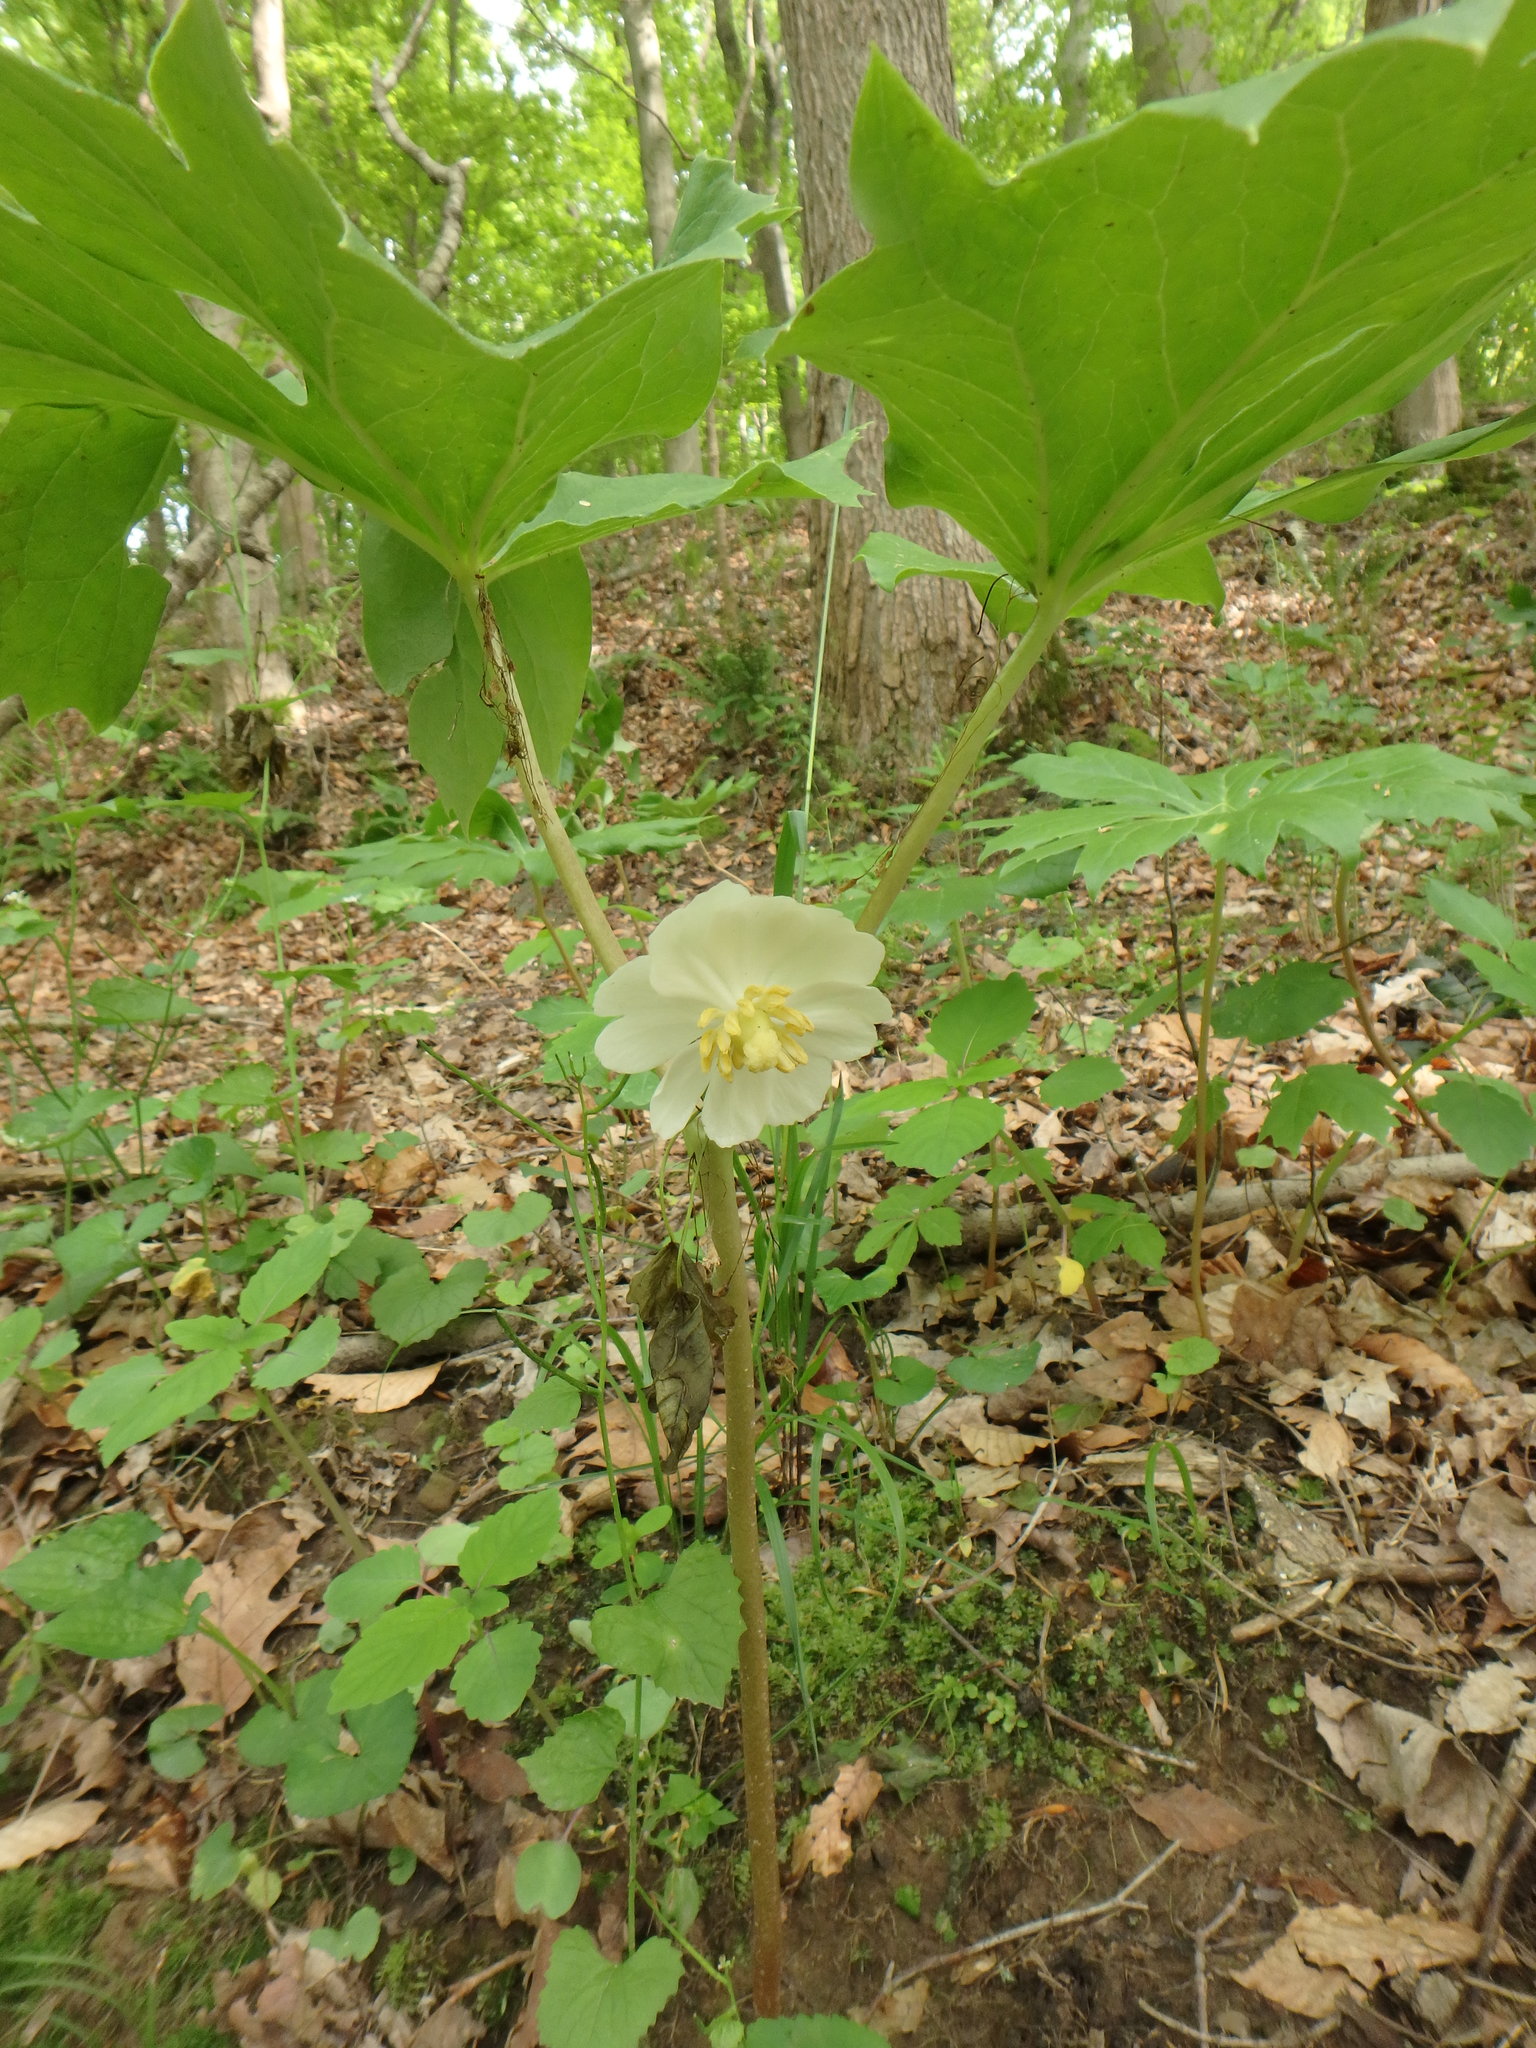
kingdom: Plantae
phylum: Tracheophyta
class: Magnoliopsida
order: Ranunculales
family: Berberidaceae
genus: Podophyllum
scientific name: Podophyllum peltatum
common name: Wild mandrake
